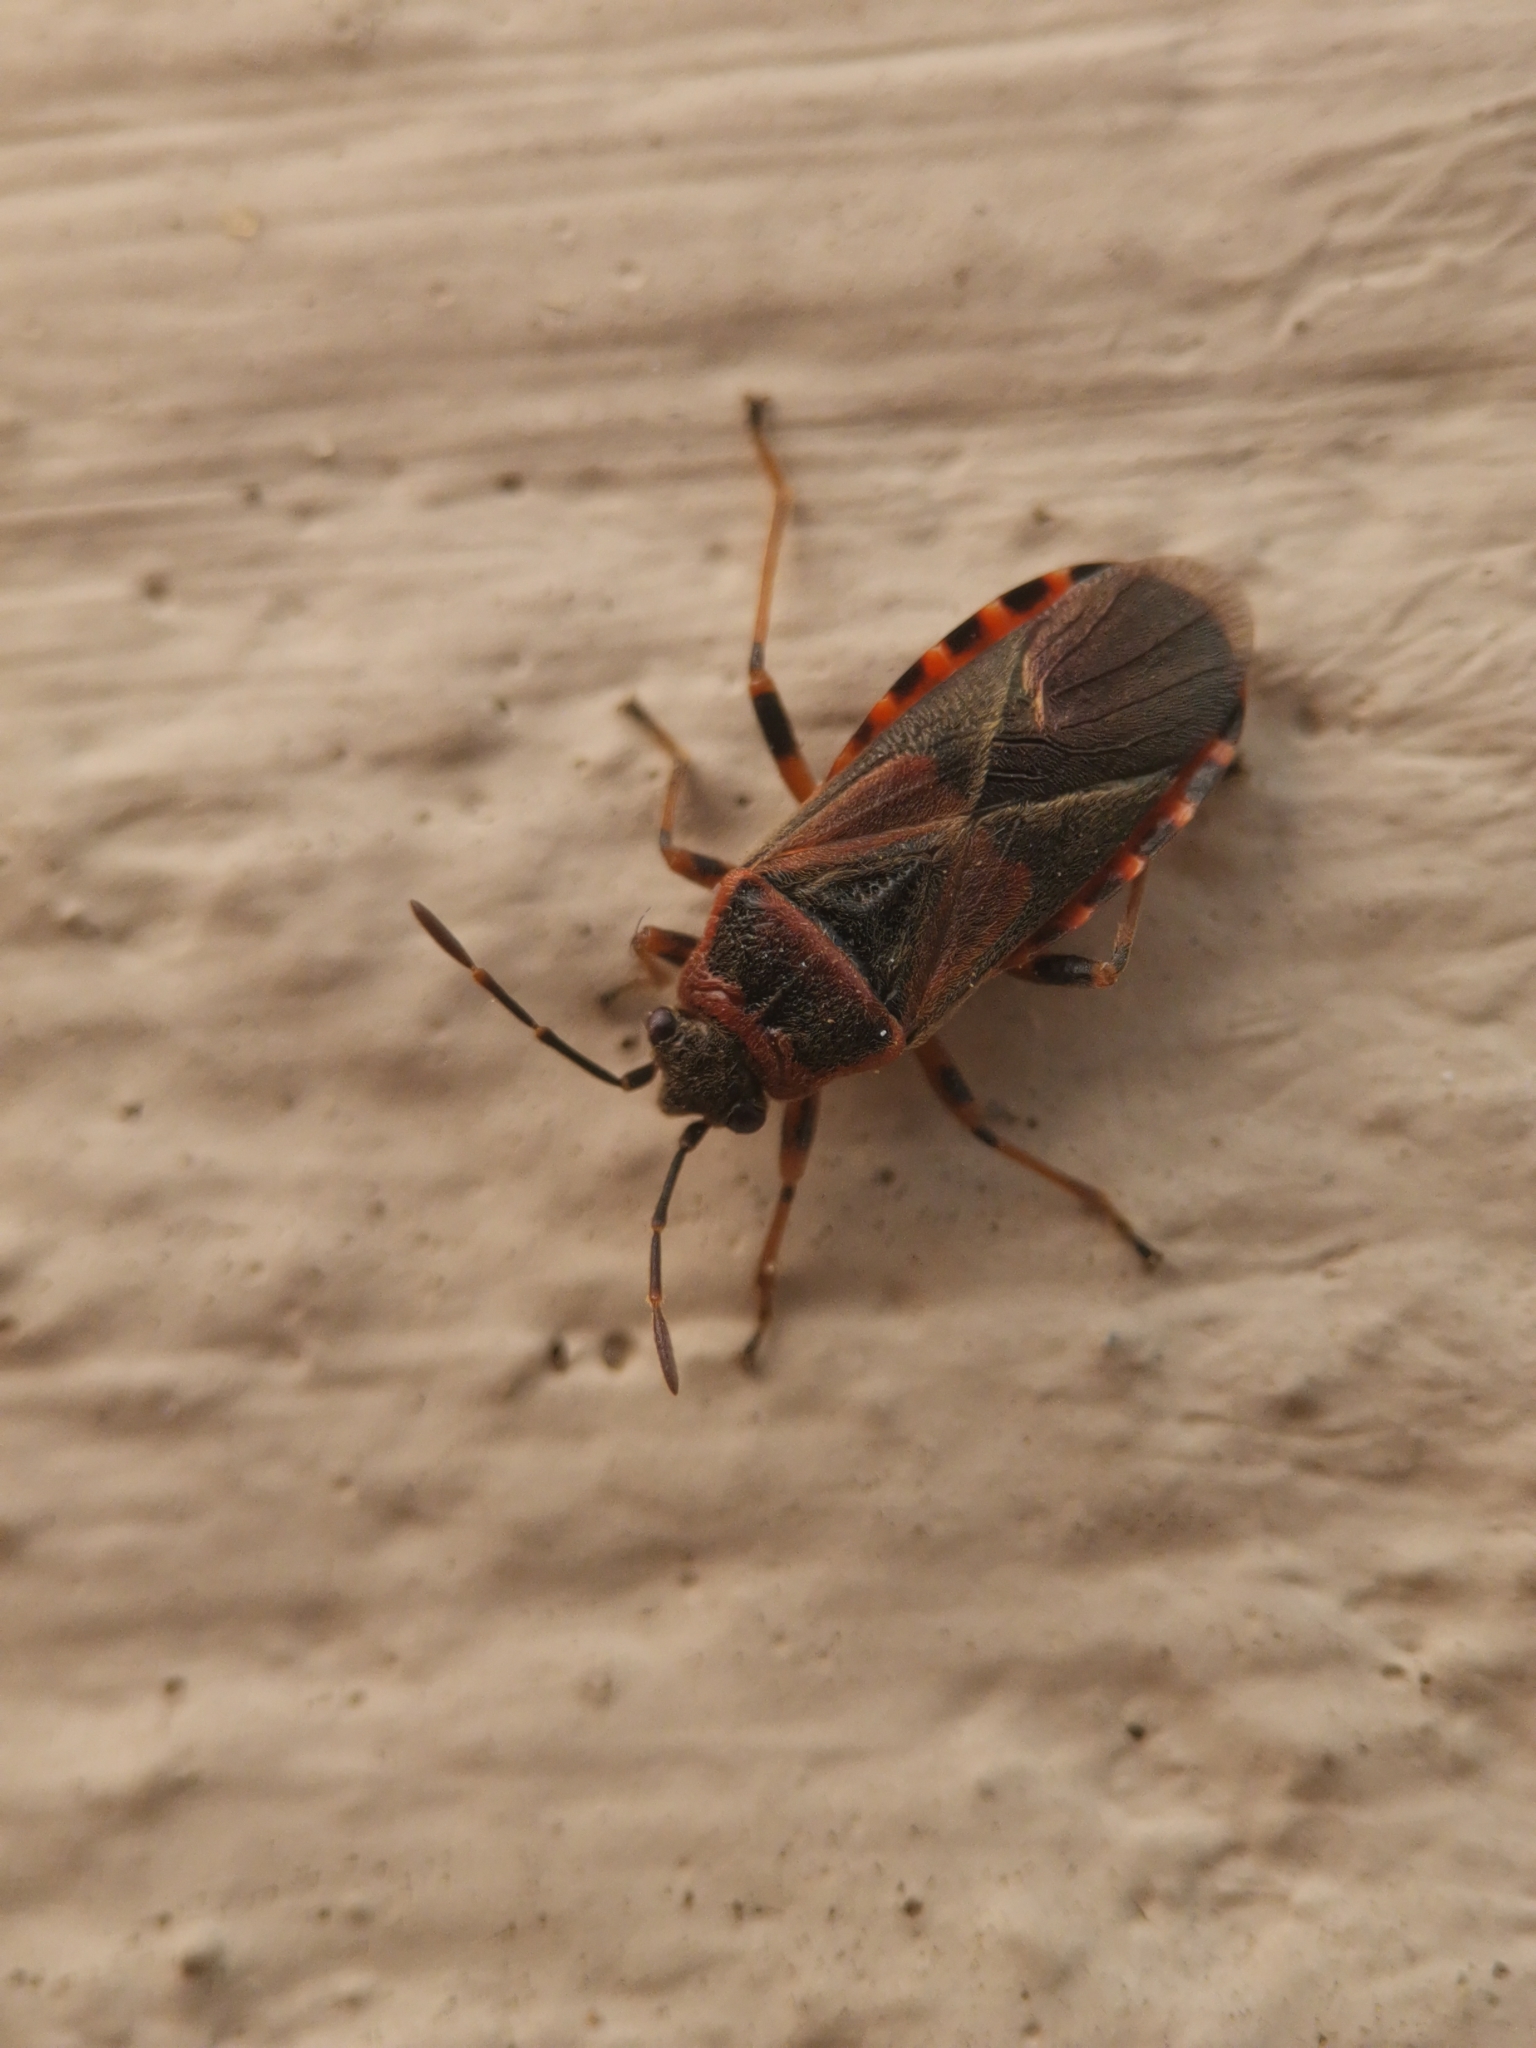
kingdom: Animalia
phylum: Arthropoda
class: Insecta
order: Hemiptera
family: Lygaeidae
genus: Arocatus
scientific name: Arocatus melanocephalus
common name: Lygaeid bug
